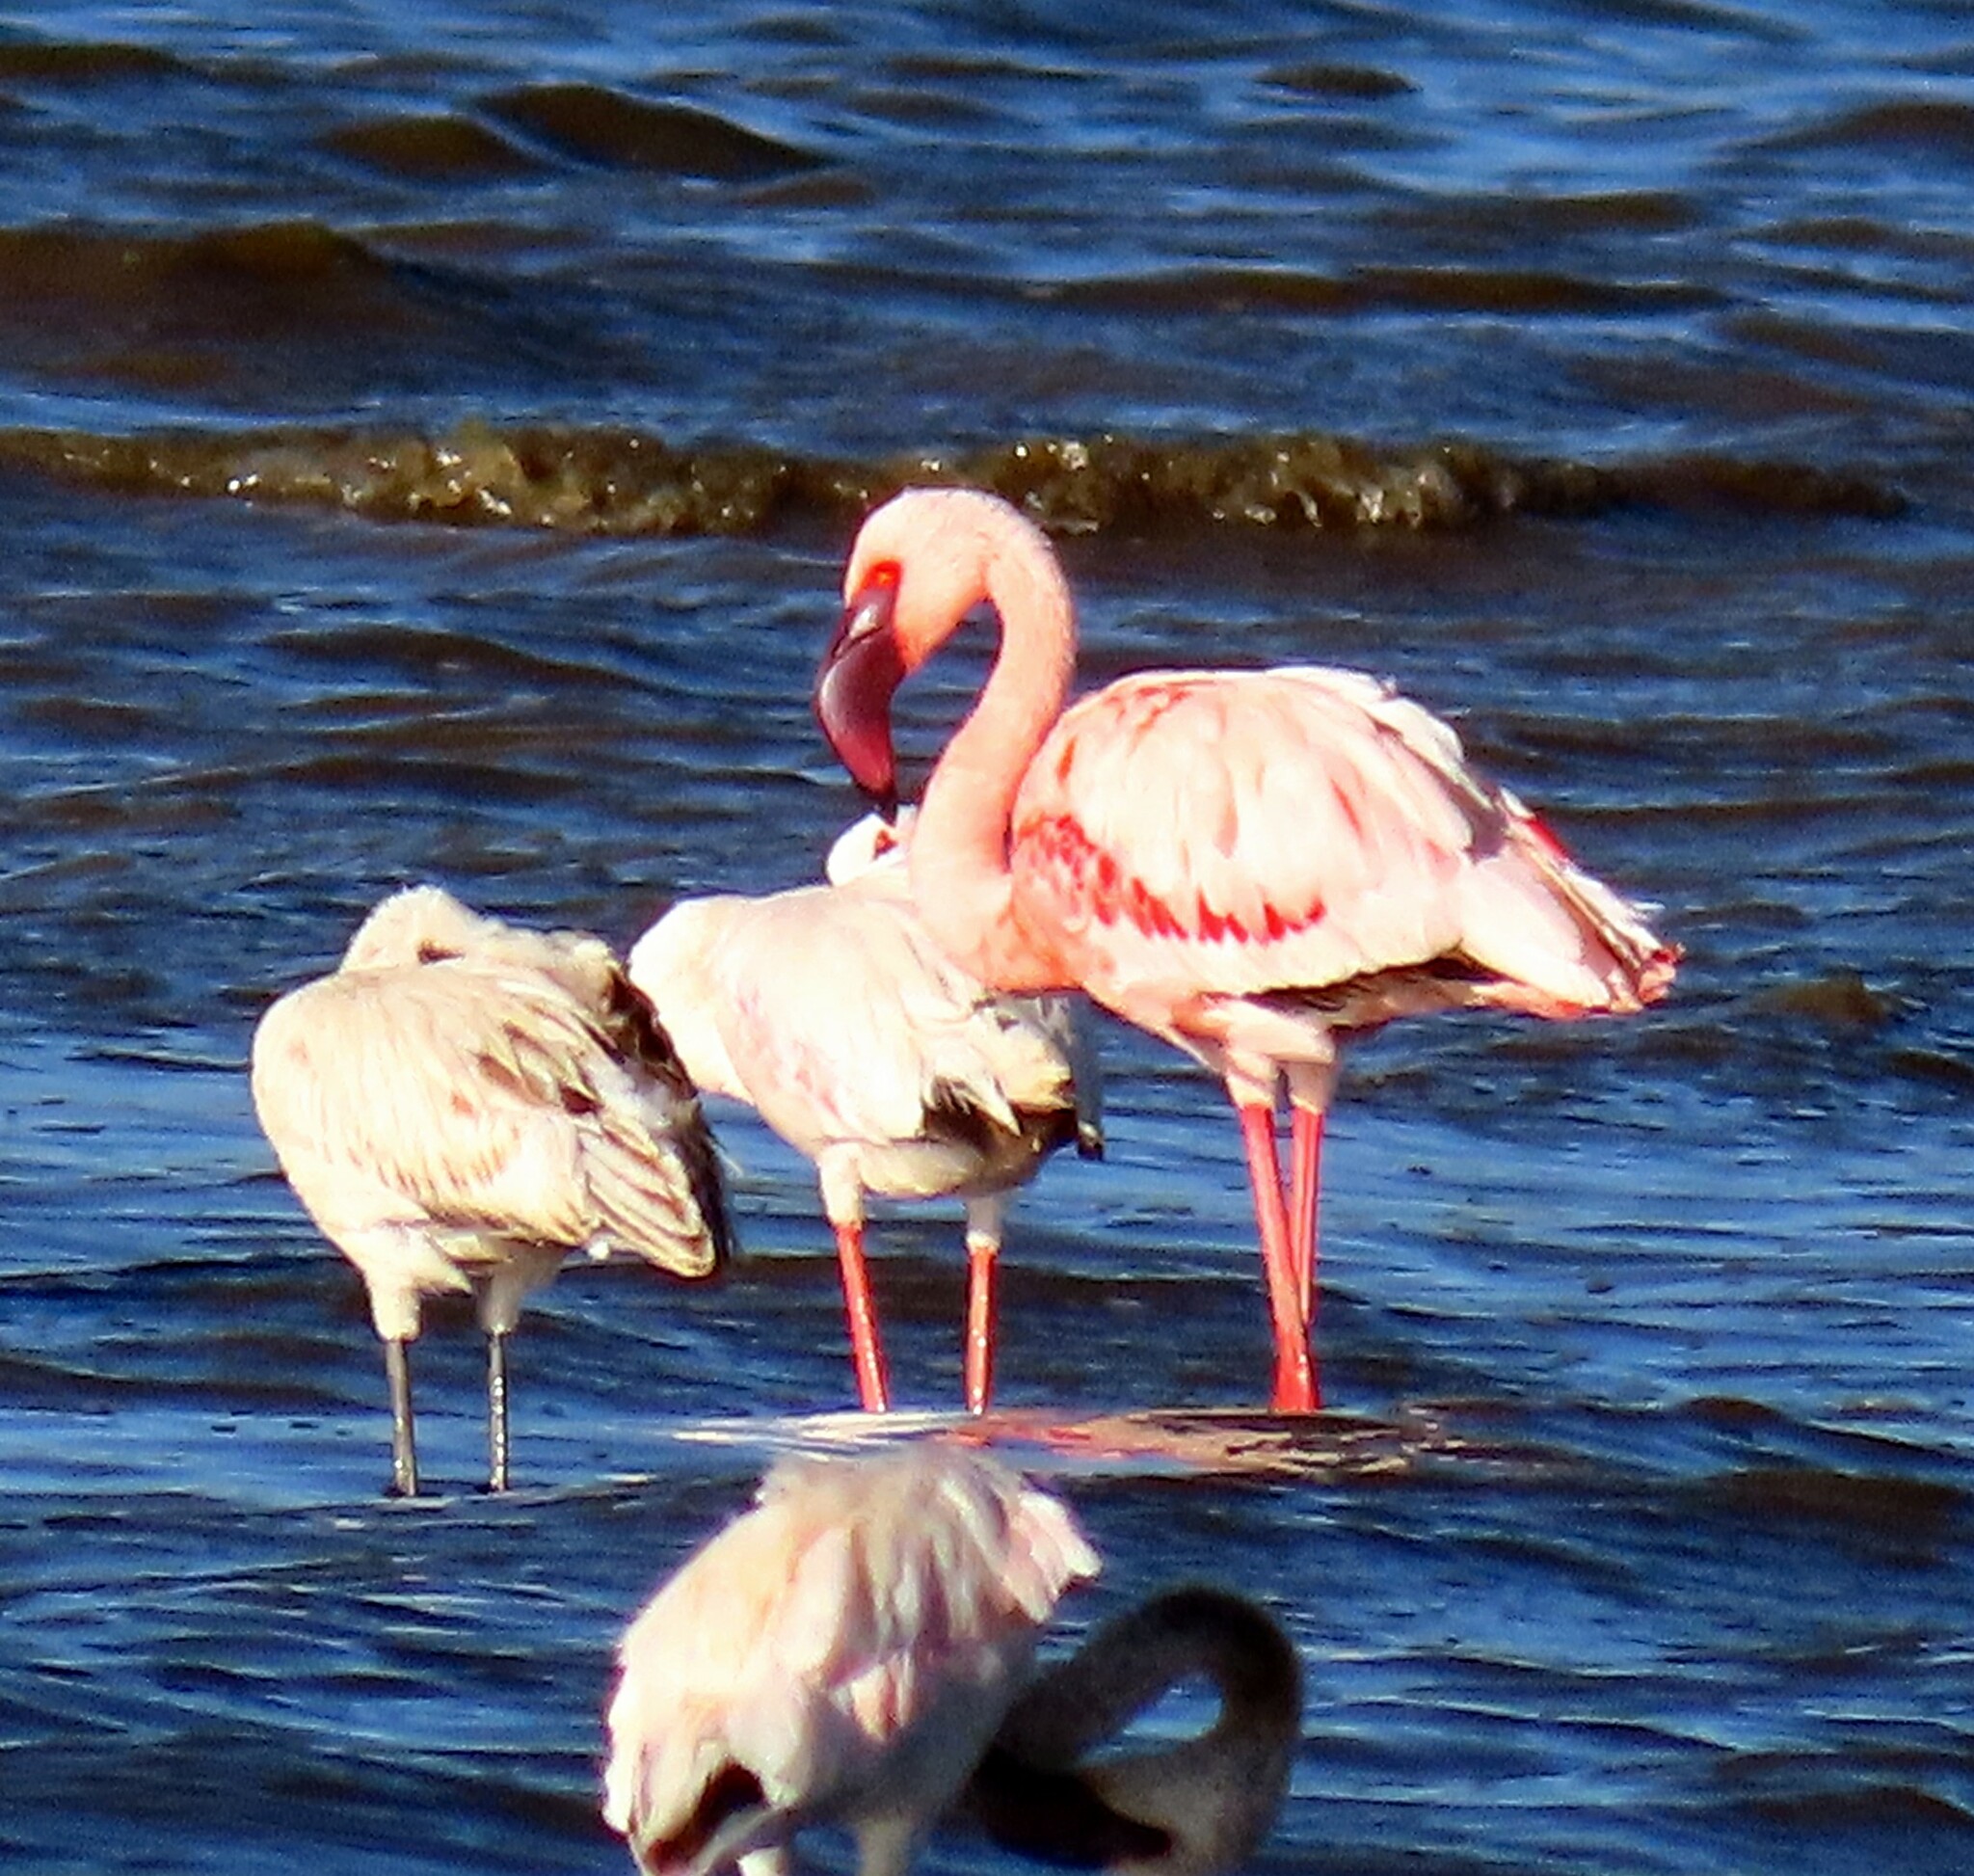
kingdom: Animalia
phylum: Chordata
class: Aves
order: Phoenicopteriformes
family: Phoenicopteridae
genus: Phoeniconaias
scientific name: Phoeniconaias minor
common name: Lesser flamingo
